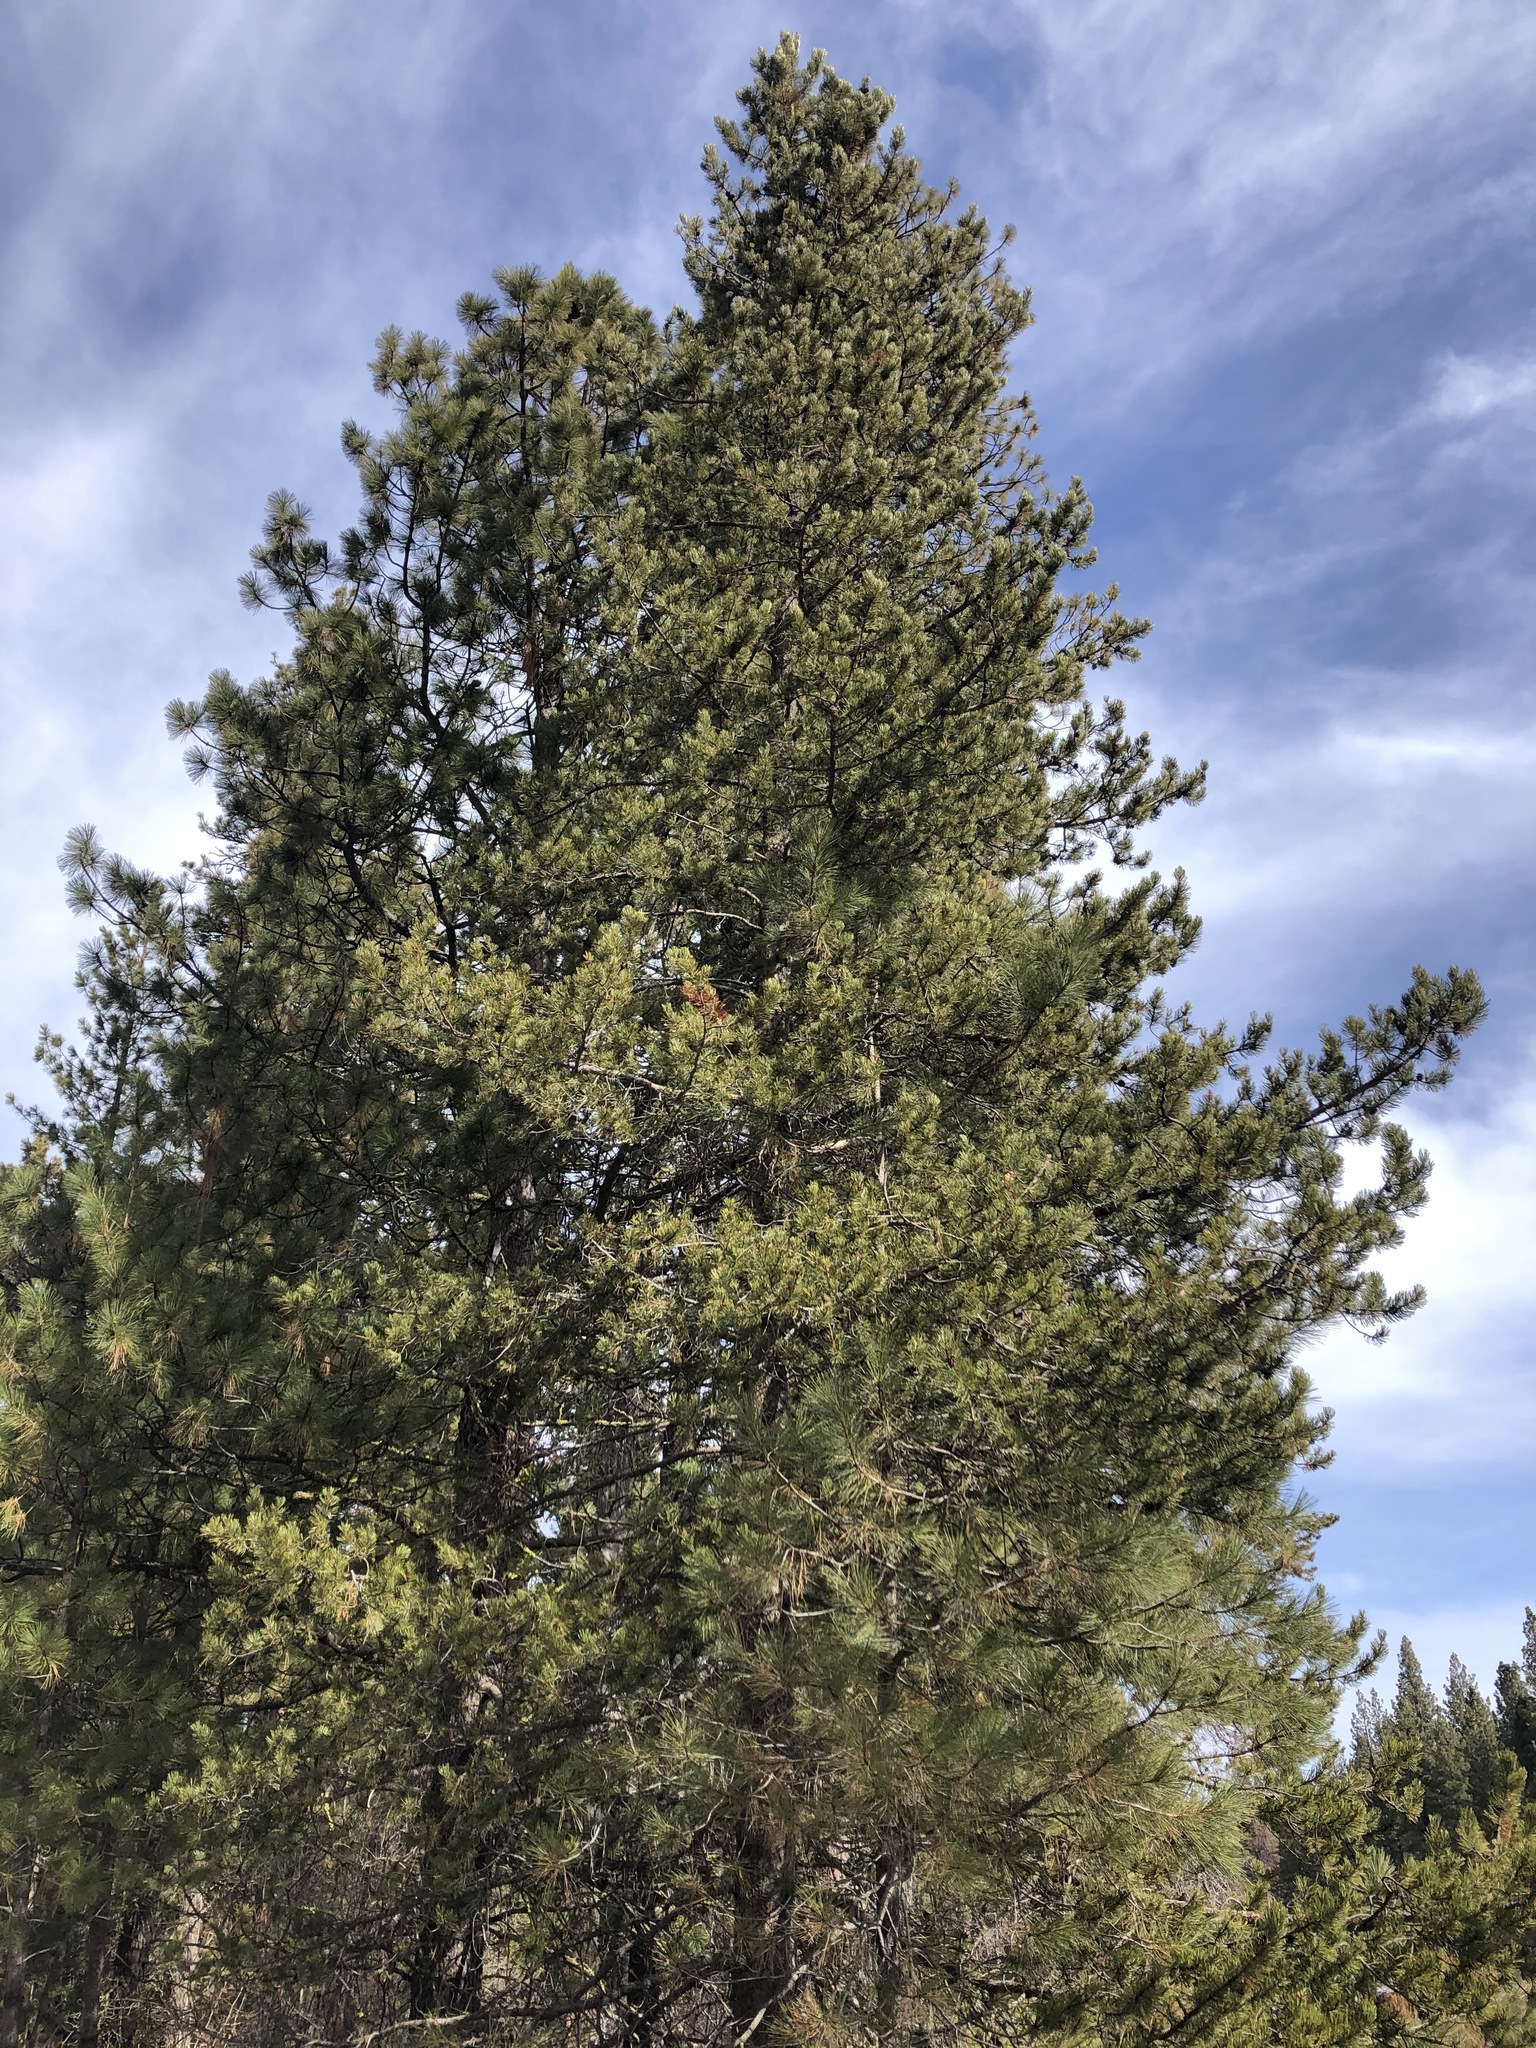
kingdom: Plantae
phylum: Tracheophyta
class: Pinopsida
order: Pinales
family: Pinaceae
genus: Pinus
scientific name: Pinus contorta
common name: Lodgepole pine
